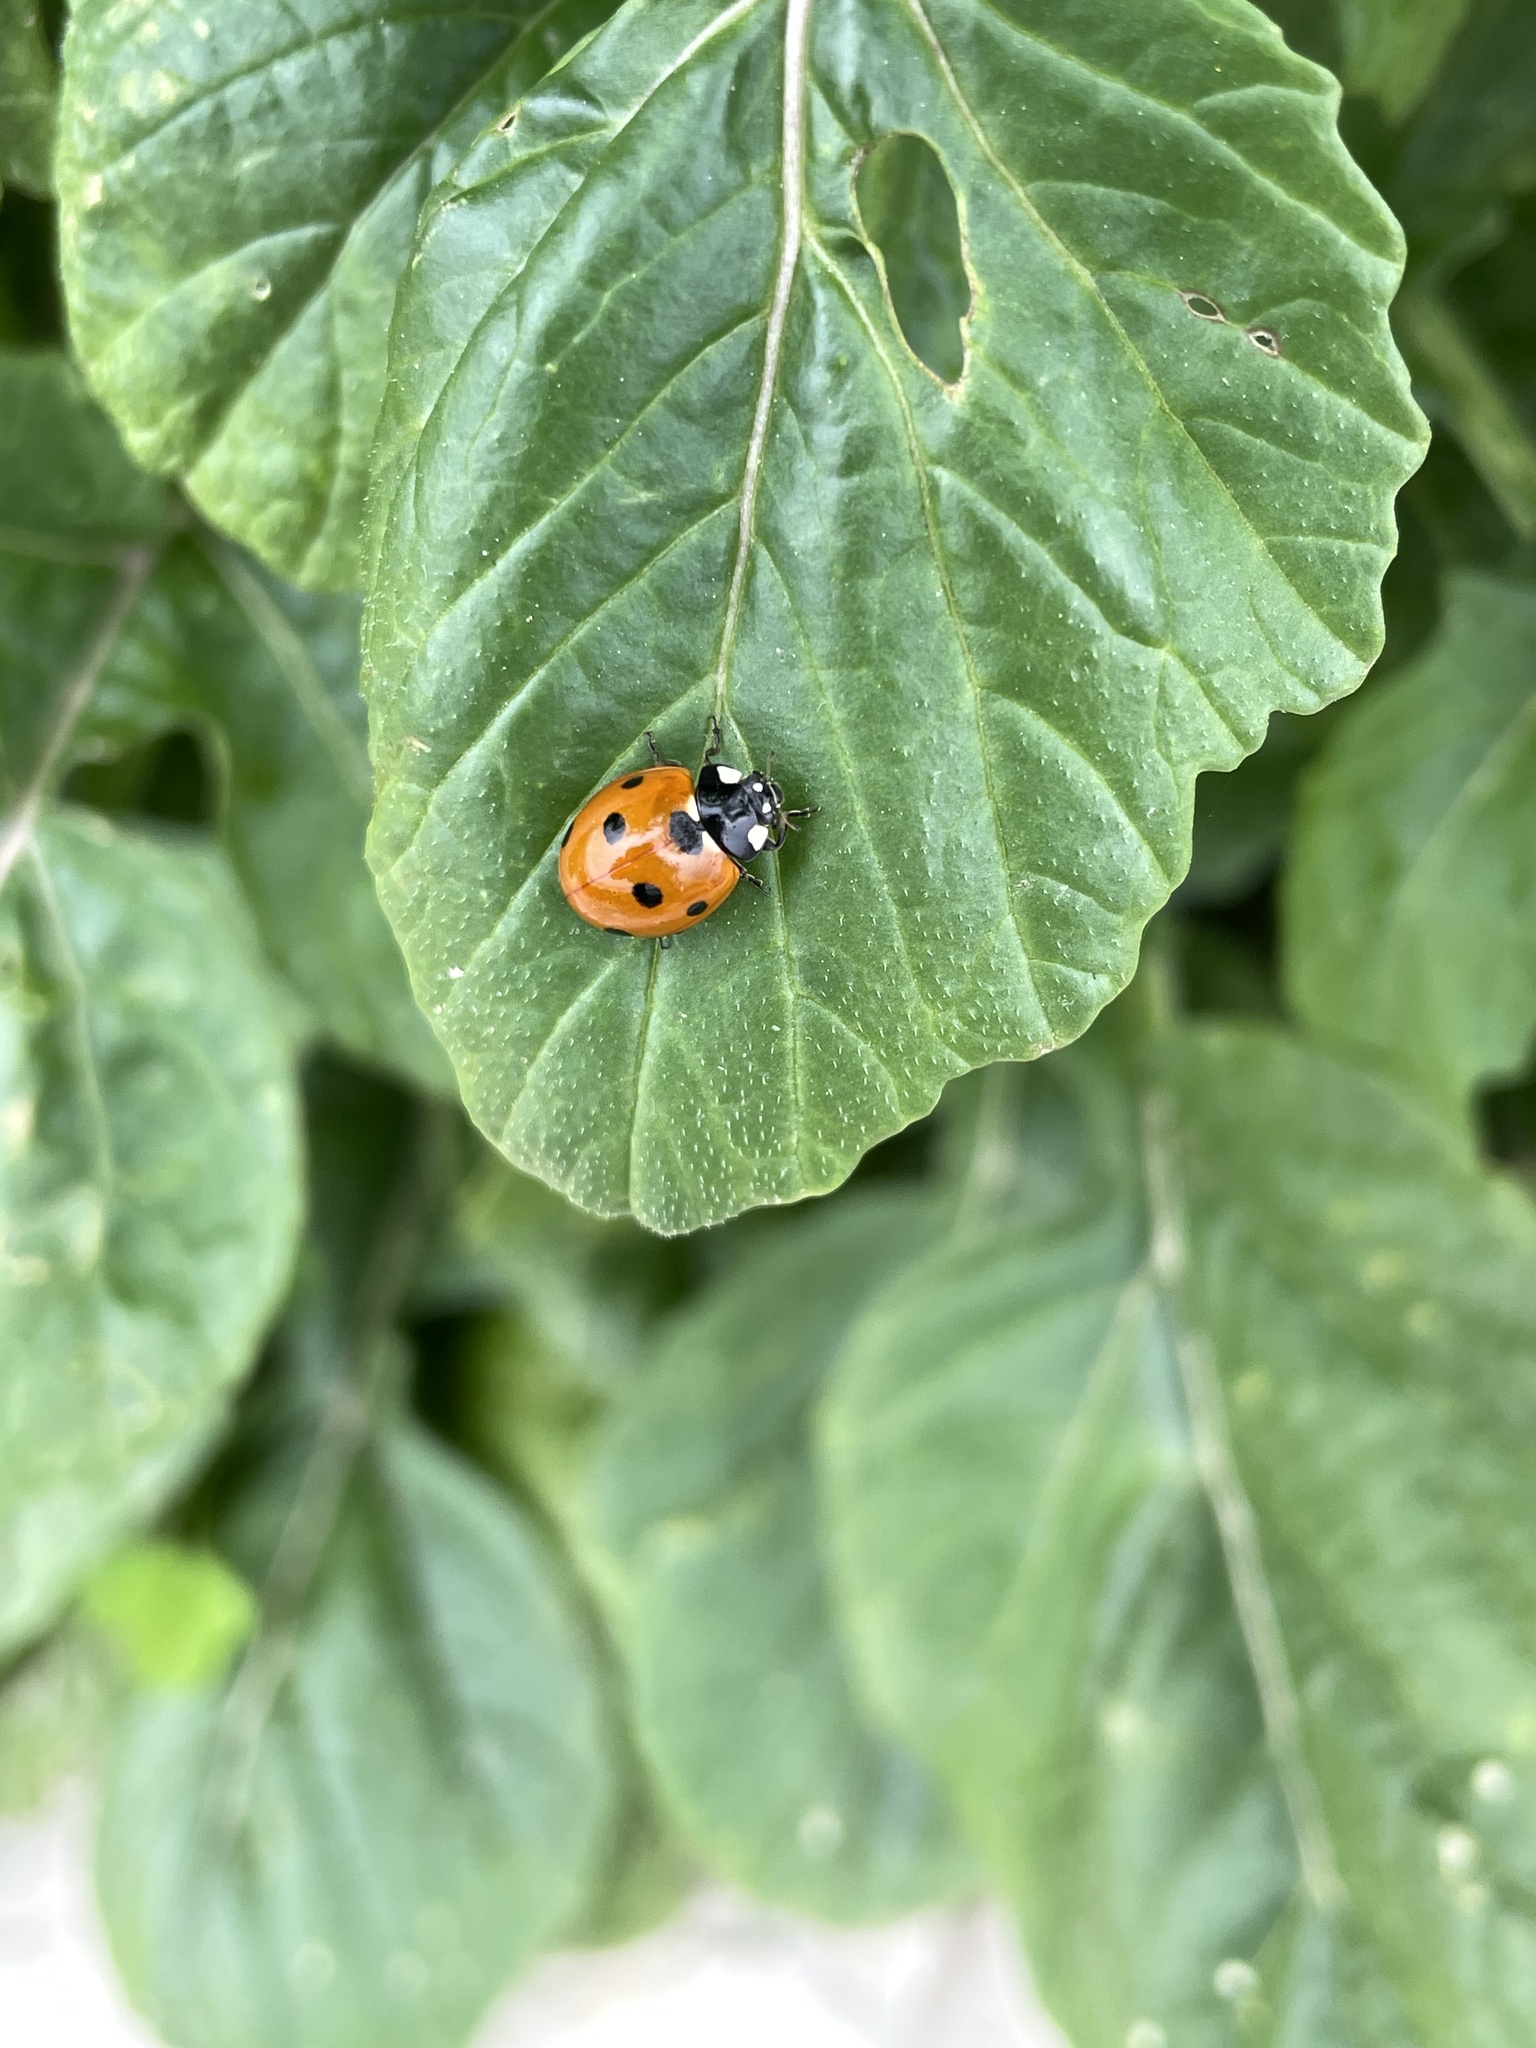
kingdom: Animalia
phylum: Arthropoda
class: Insecta
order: Coleoptera
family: Coccinellidae
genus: Coccinella
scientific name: Coccinella septempunctata
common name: Sevenspotted lady beetle
